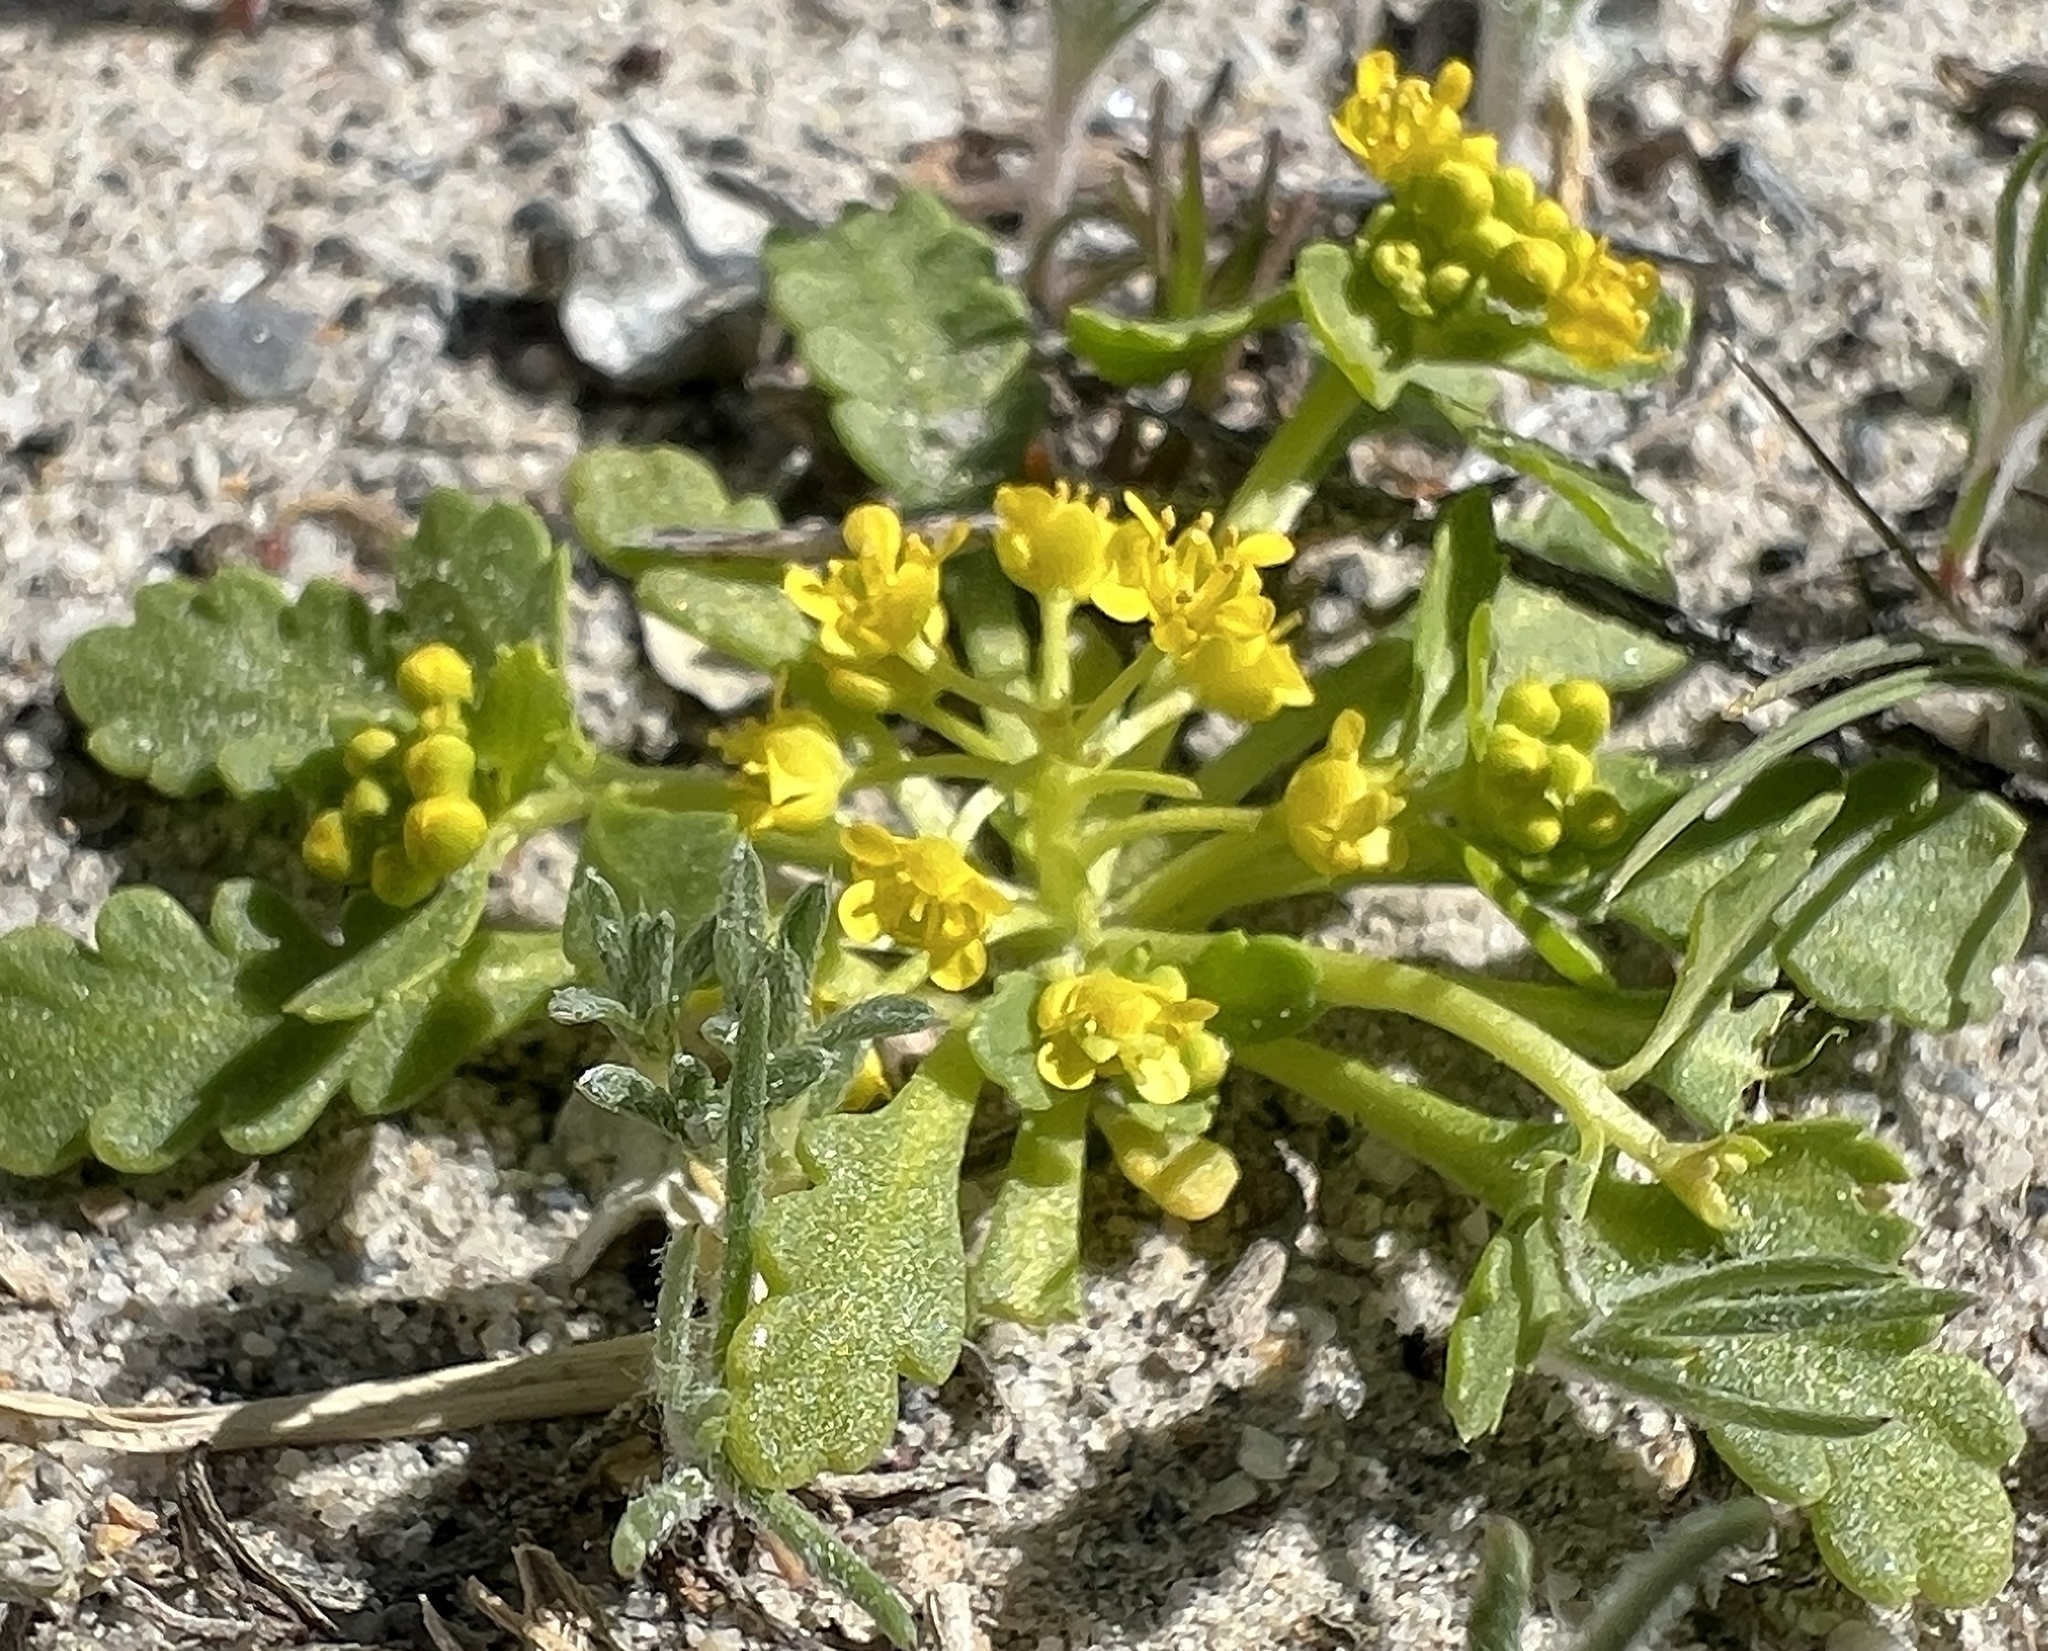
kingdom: Plantae
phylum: Tracheophyta
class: Magnoliopsida
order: Brassicales
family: Brassicaceae
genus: Lepidium
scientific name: Lepidium flavum
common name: Yellow pepperwort
